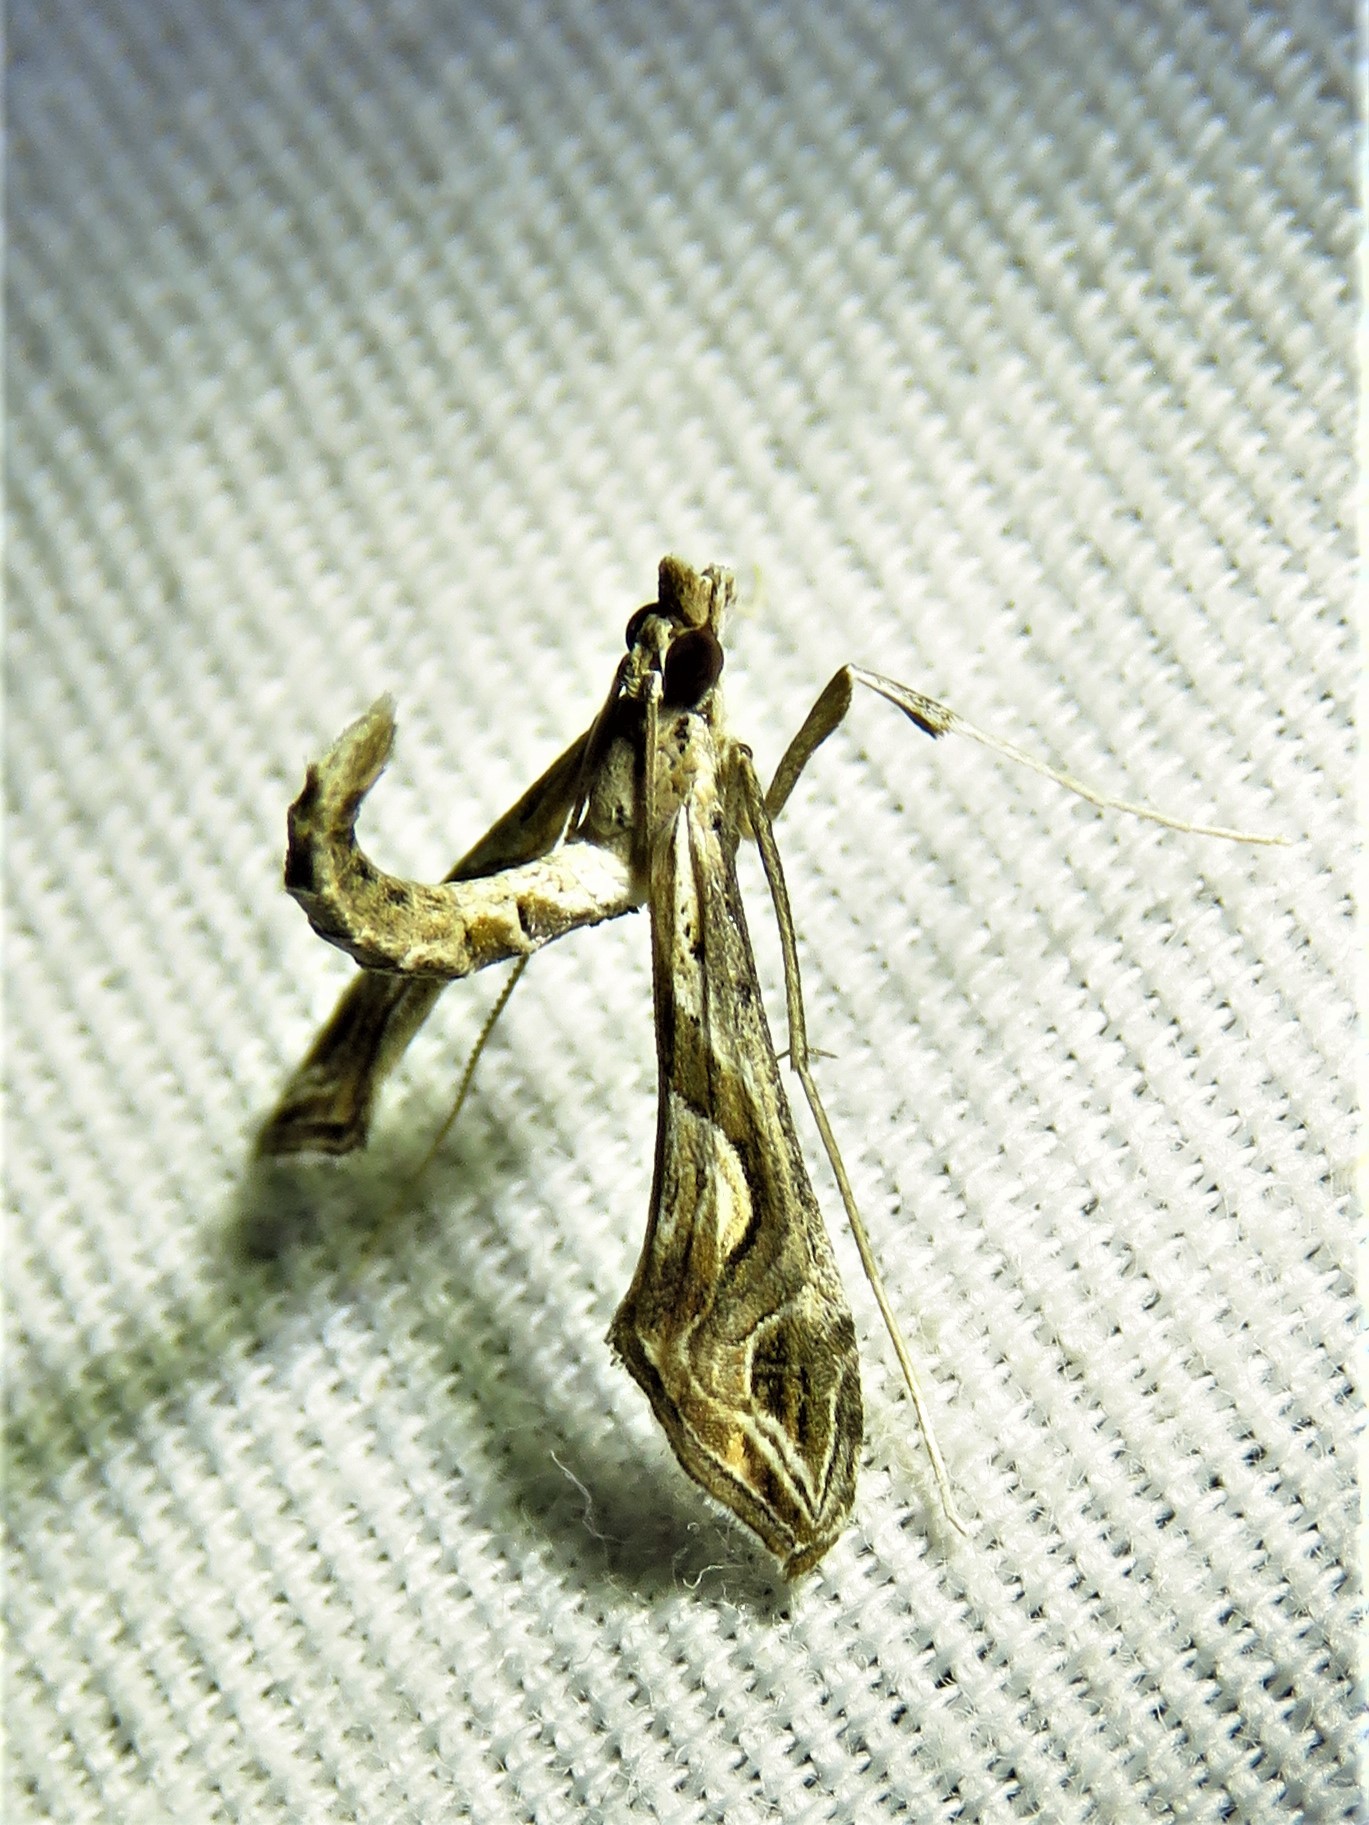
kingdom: Animalia
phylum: Arthropoda
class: Insecta
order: Lepidoptera
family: Crambidae
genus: Lineodes
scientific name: Lineodes integra
